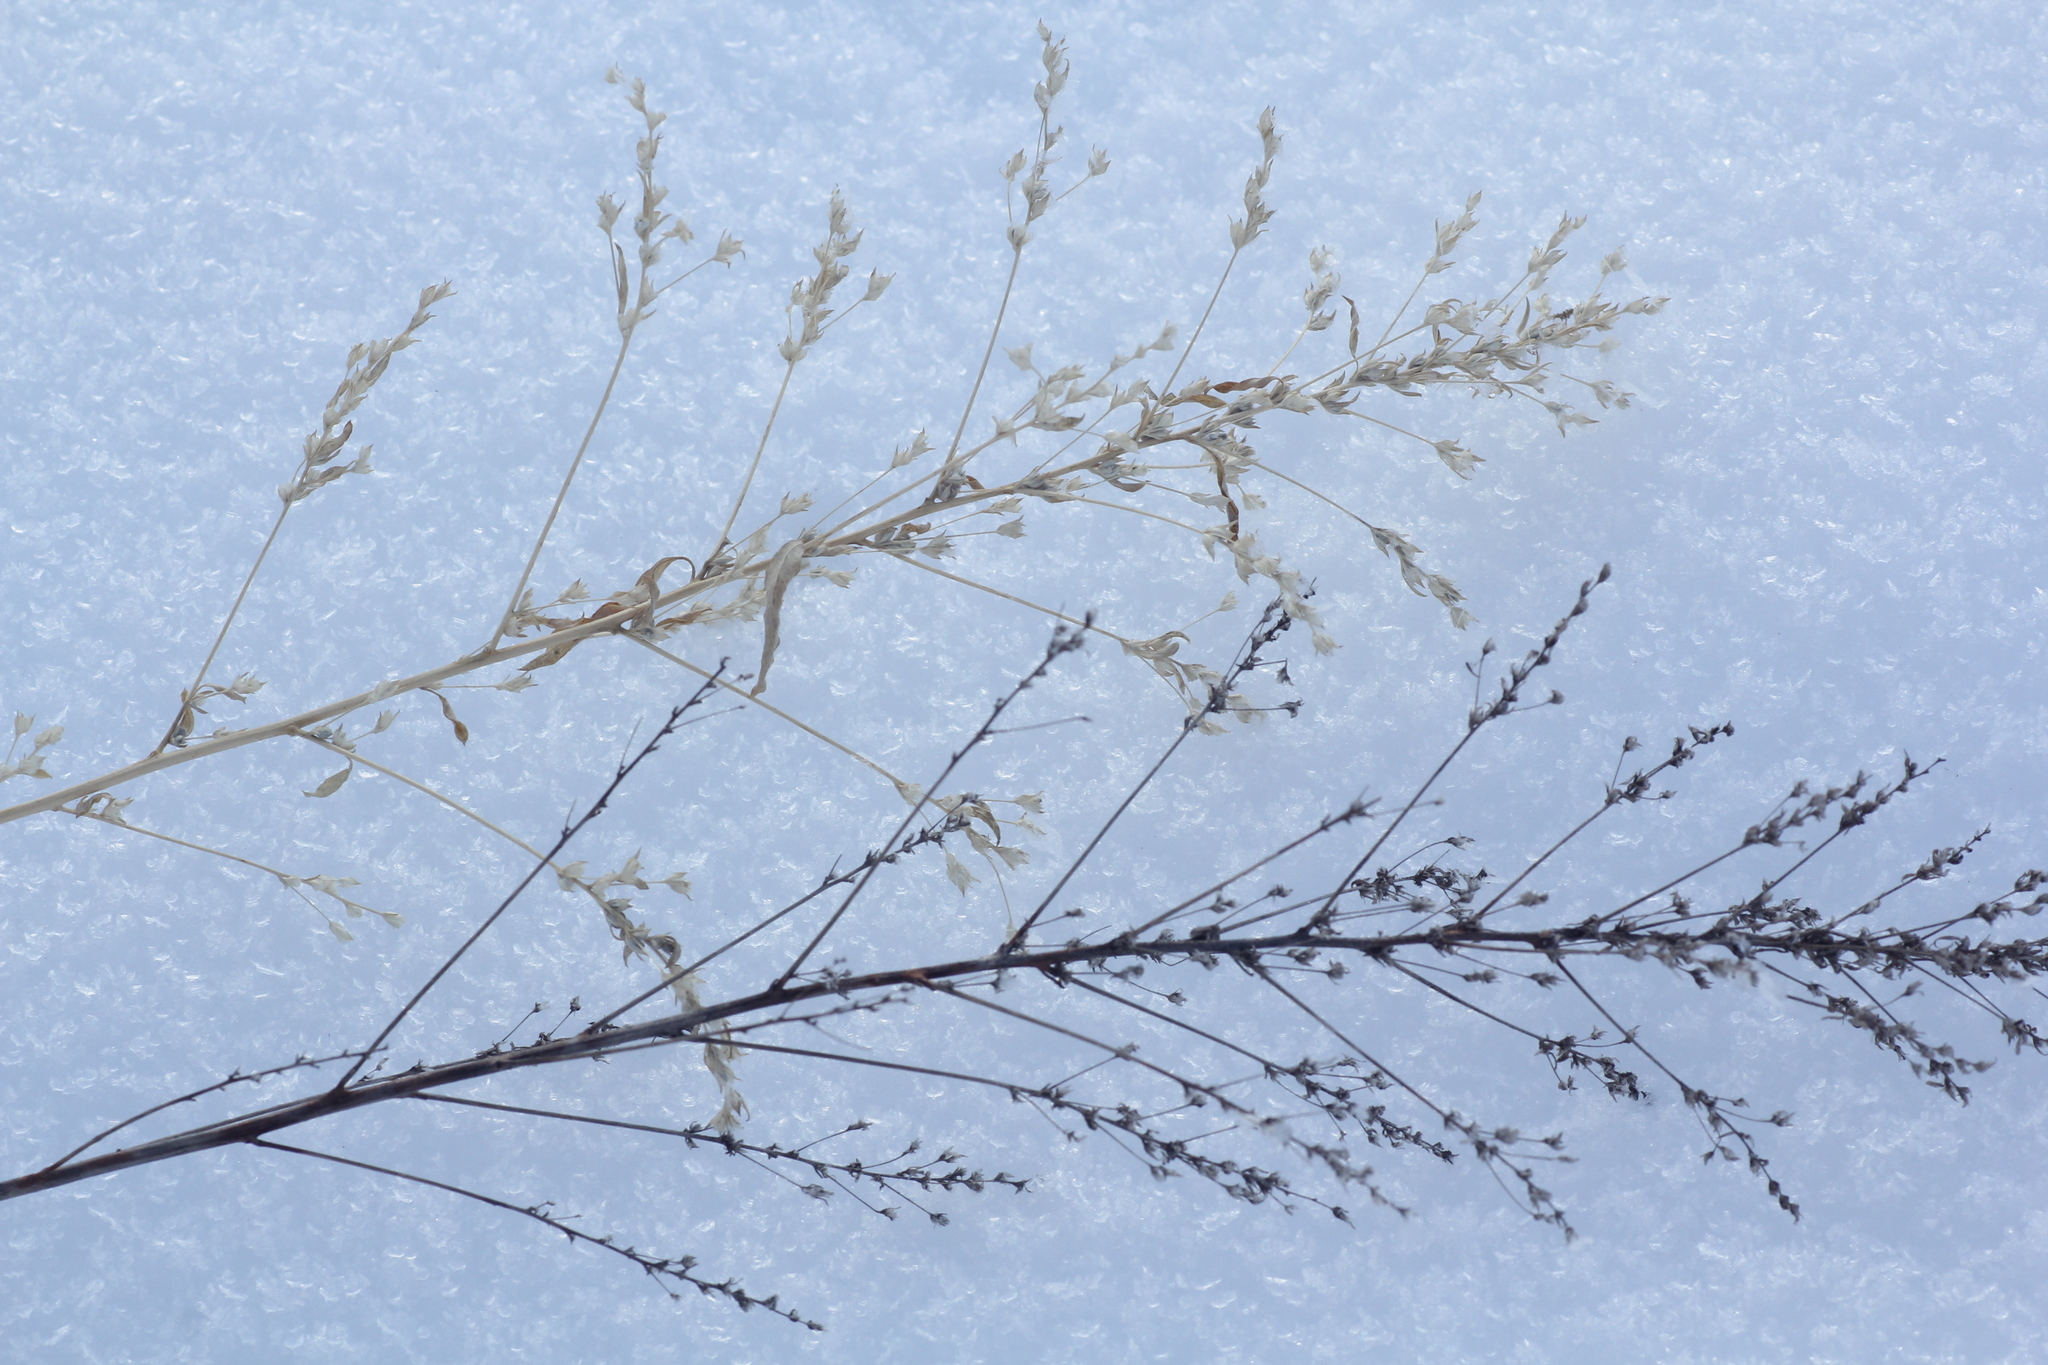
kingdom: Plantae
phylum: Tracheophyta
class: Magnoliopsida
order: Caryophyllales
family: Amaranthaceae
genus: Axyris
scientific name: Axyris amaranthoides
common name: Russian pigweed
